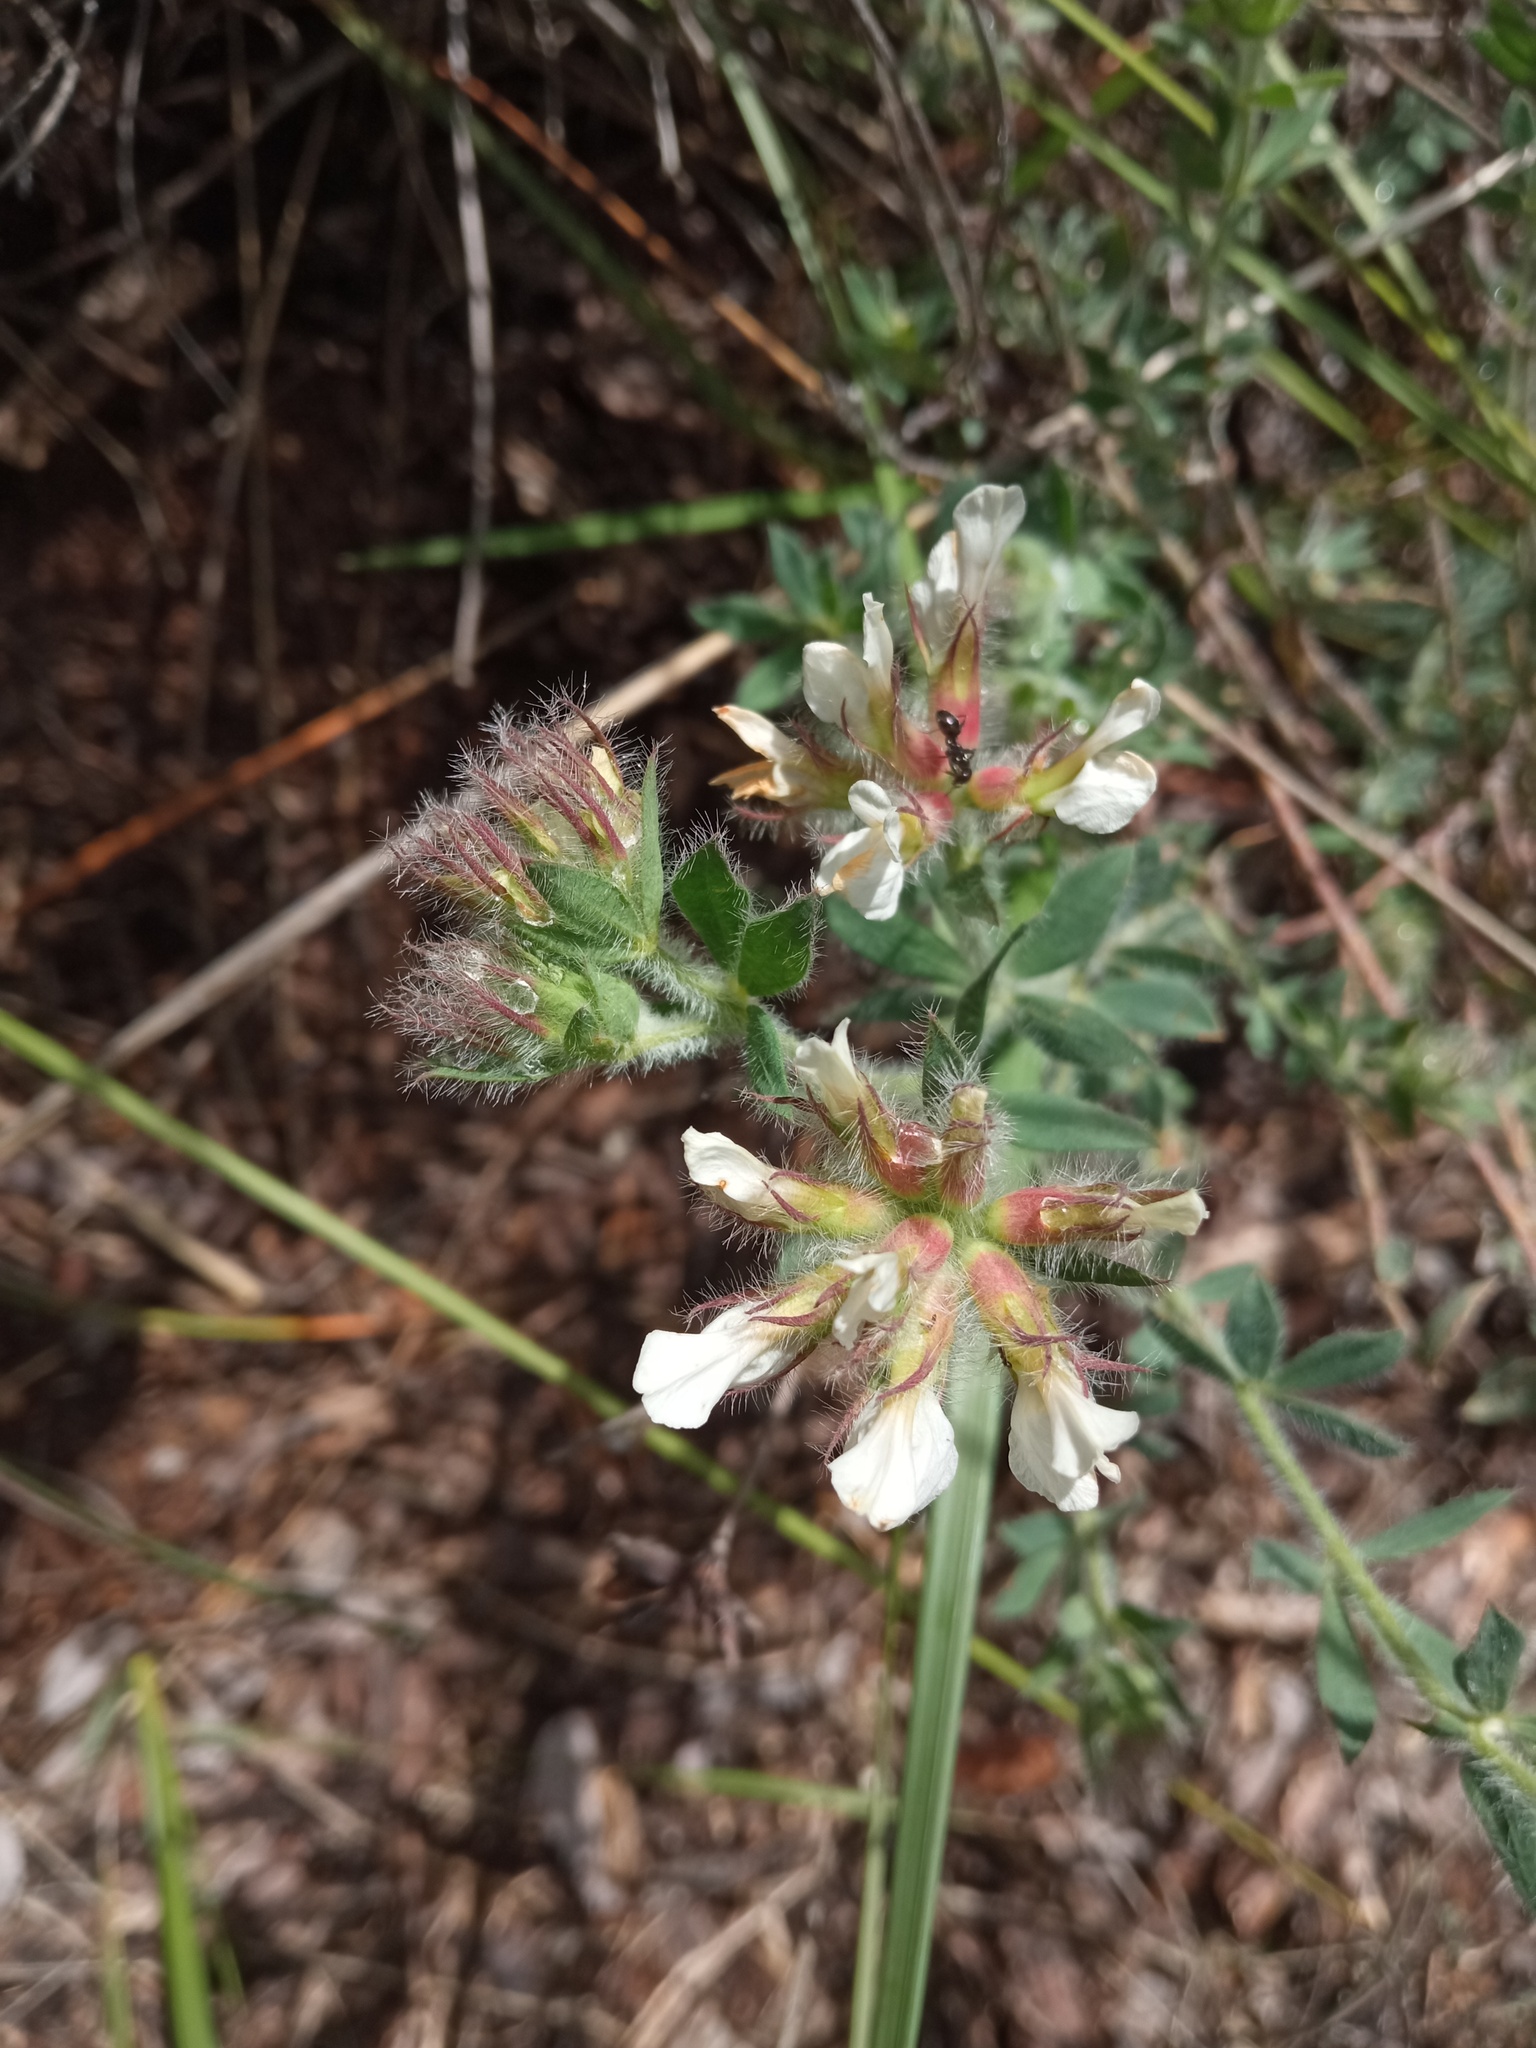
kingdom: Plantae
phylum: Tracheophyta
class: Magnoliopsida
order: Fabales
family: Fabaceae
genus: Lotus
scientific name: Lotus hirsutus
